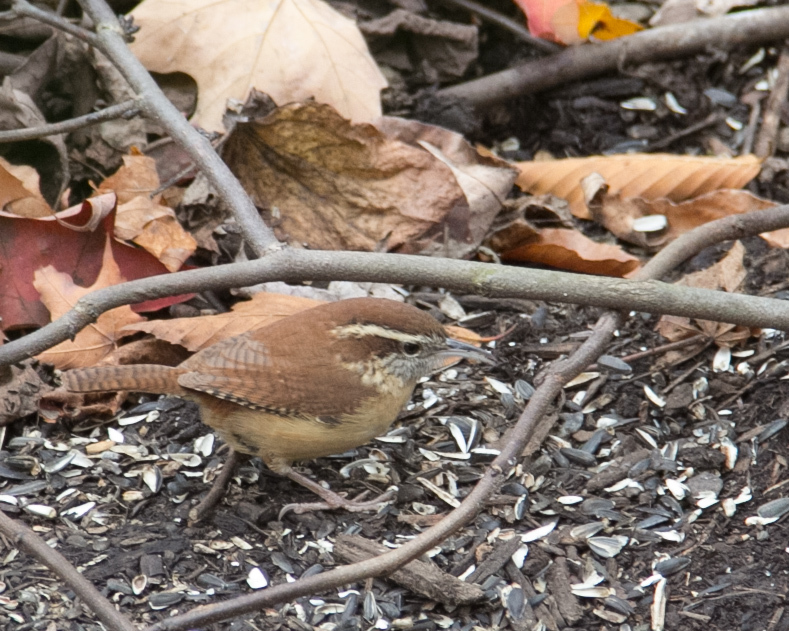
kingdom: Animalia
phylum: Chordata
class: Aves
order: Passeriformes
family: Troglodytidae
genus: Thryothorus
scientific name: Thryothorus ludovicianus
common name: Carolina wren
